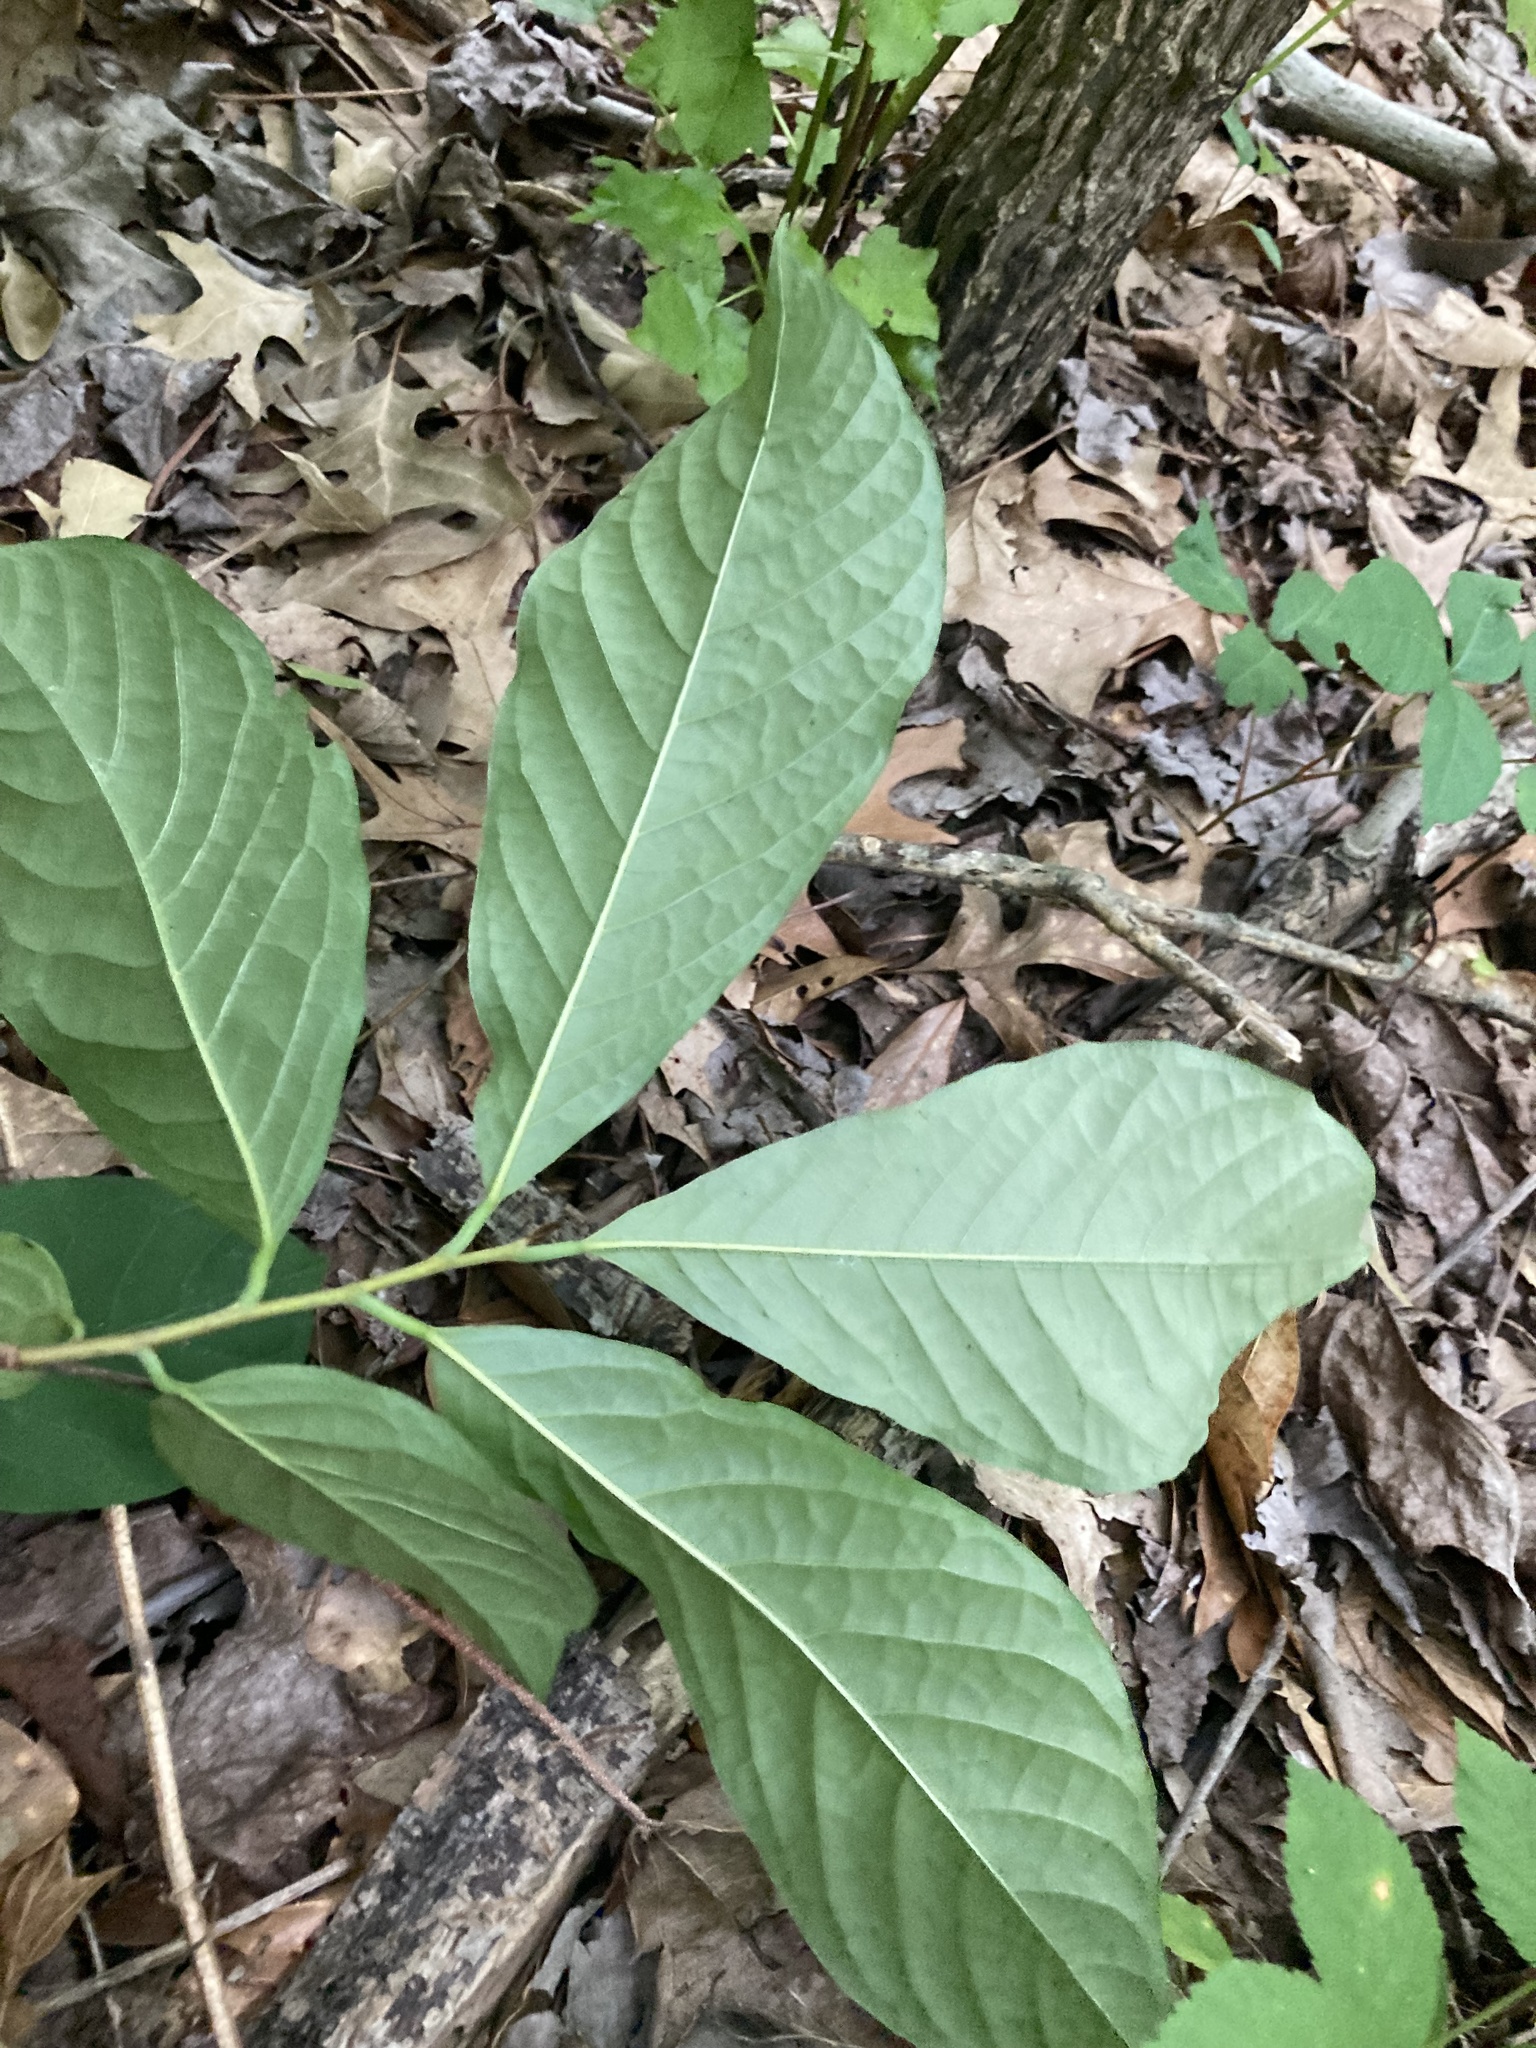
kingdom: Plantae
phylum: Tracheophyta
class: Magnoliopsida
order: Magnoliales
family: Annonaceae
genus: Asimina
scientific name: Asimina triloba
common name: Dog-banana
